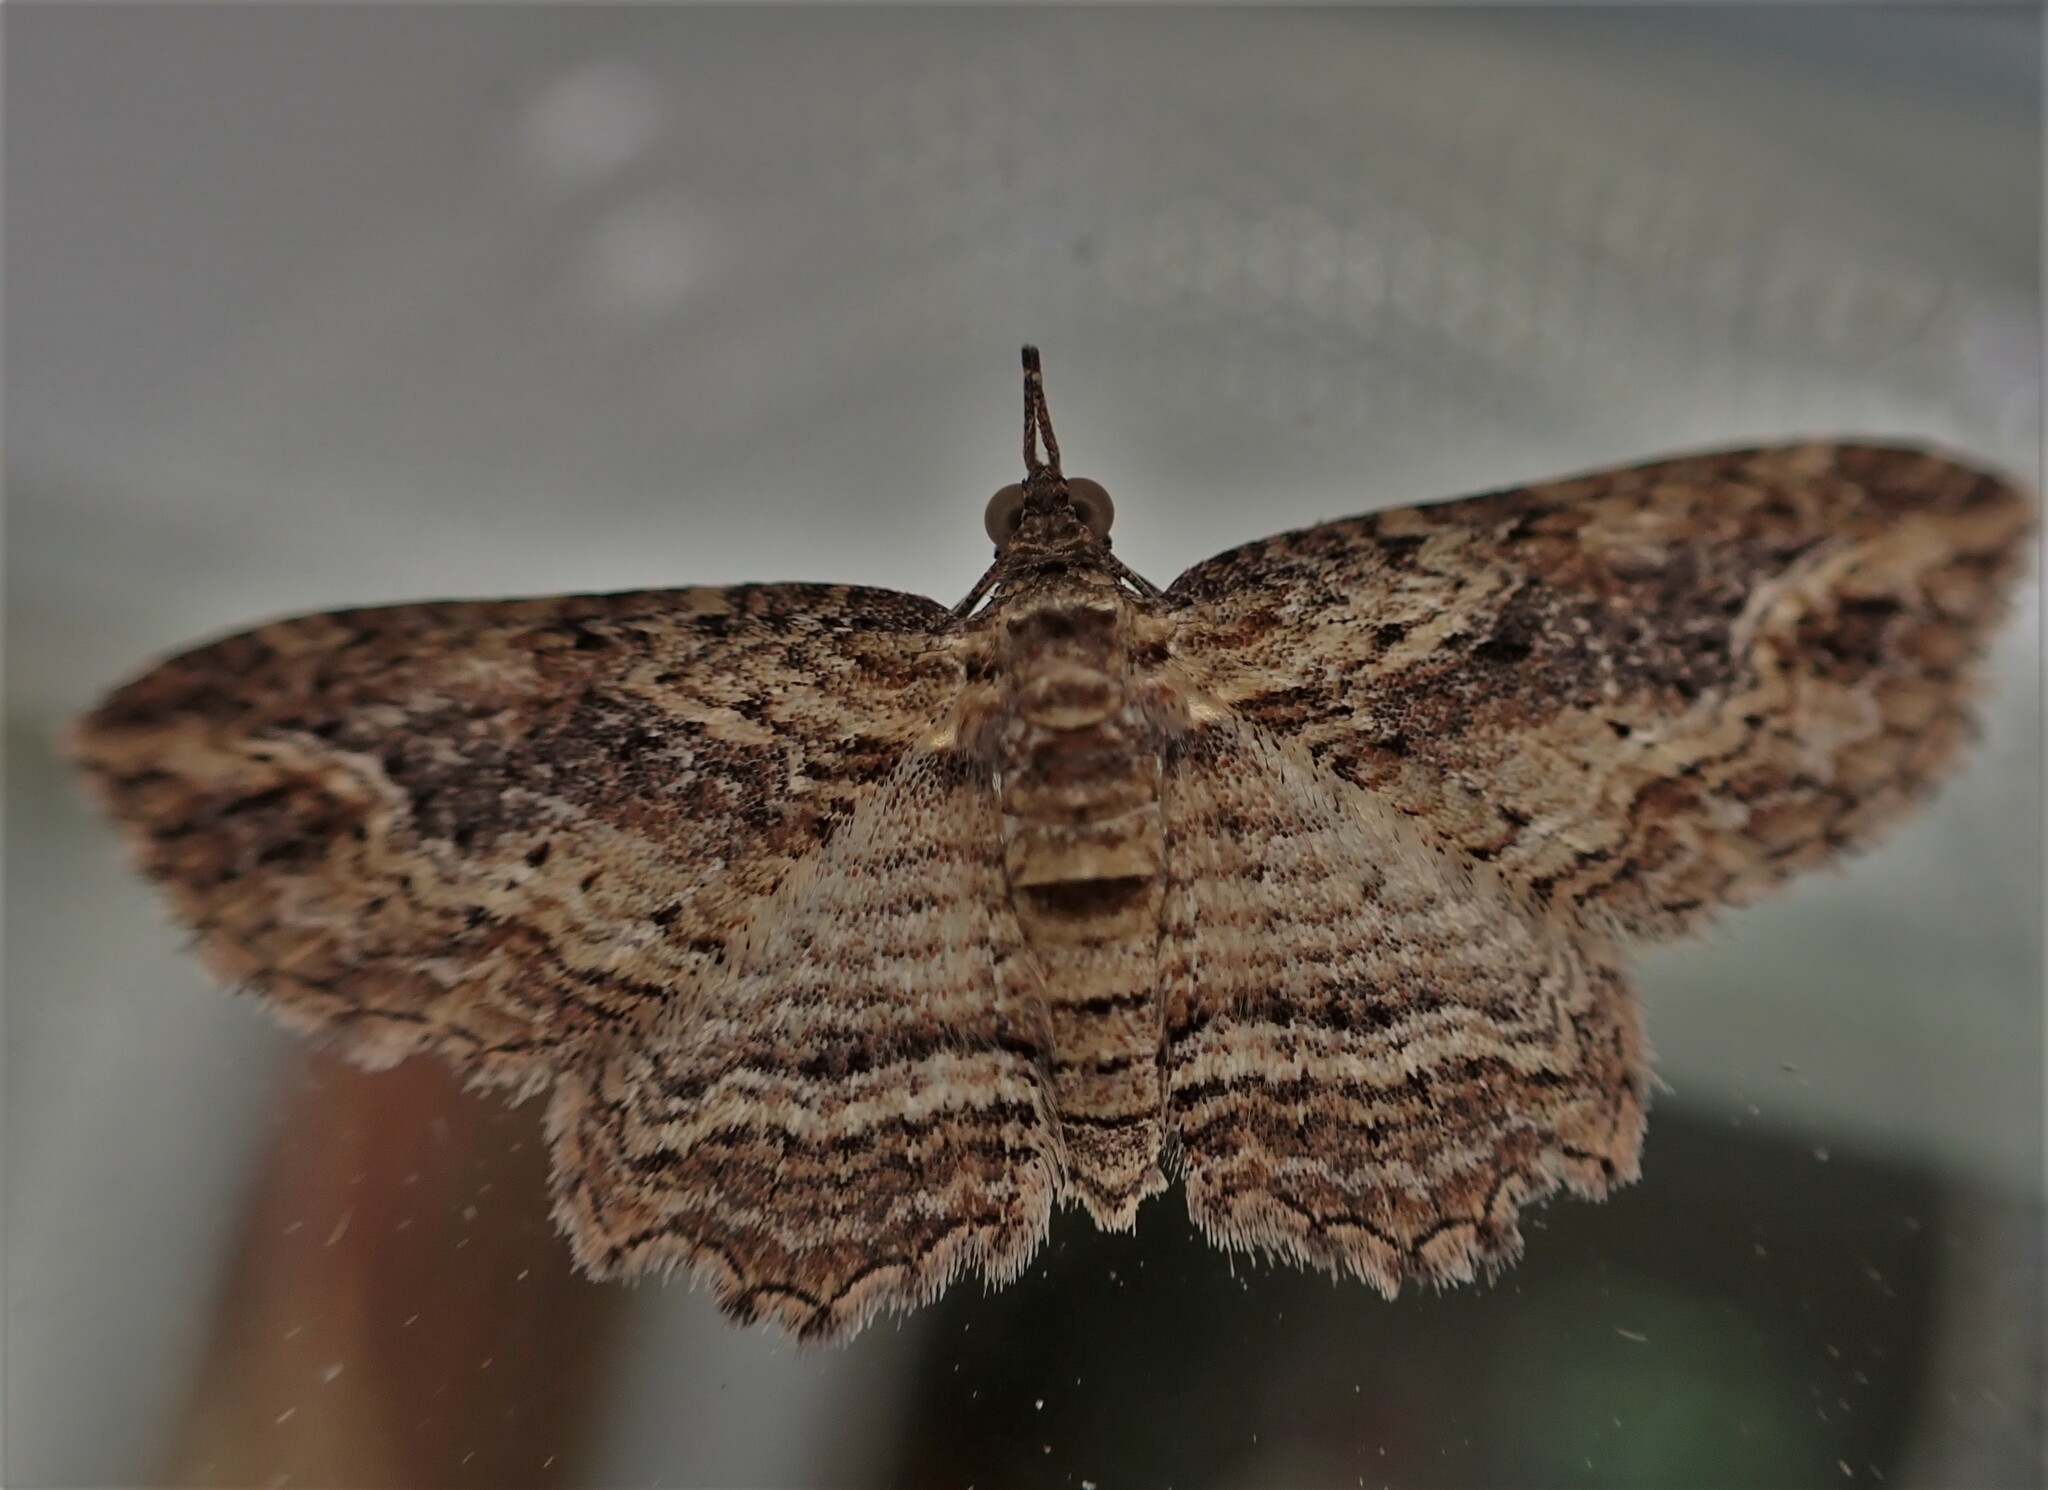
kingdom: Animalia
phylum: Arthropoda
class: Insecta
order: Lepidoptera
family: Geometridae
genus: Chloroclystis
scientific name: Chloroclystis filata
